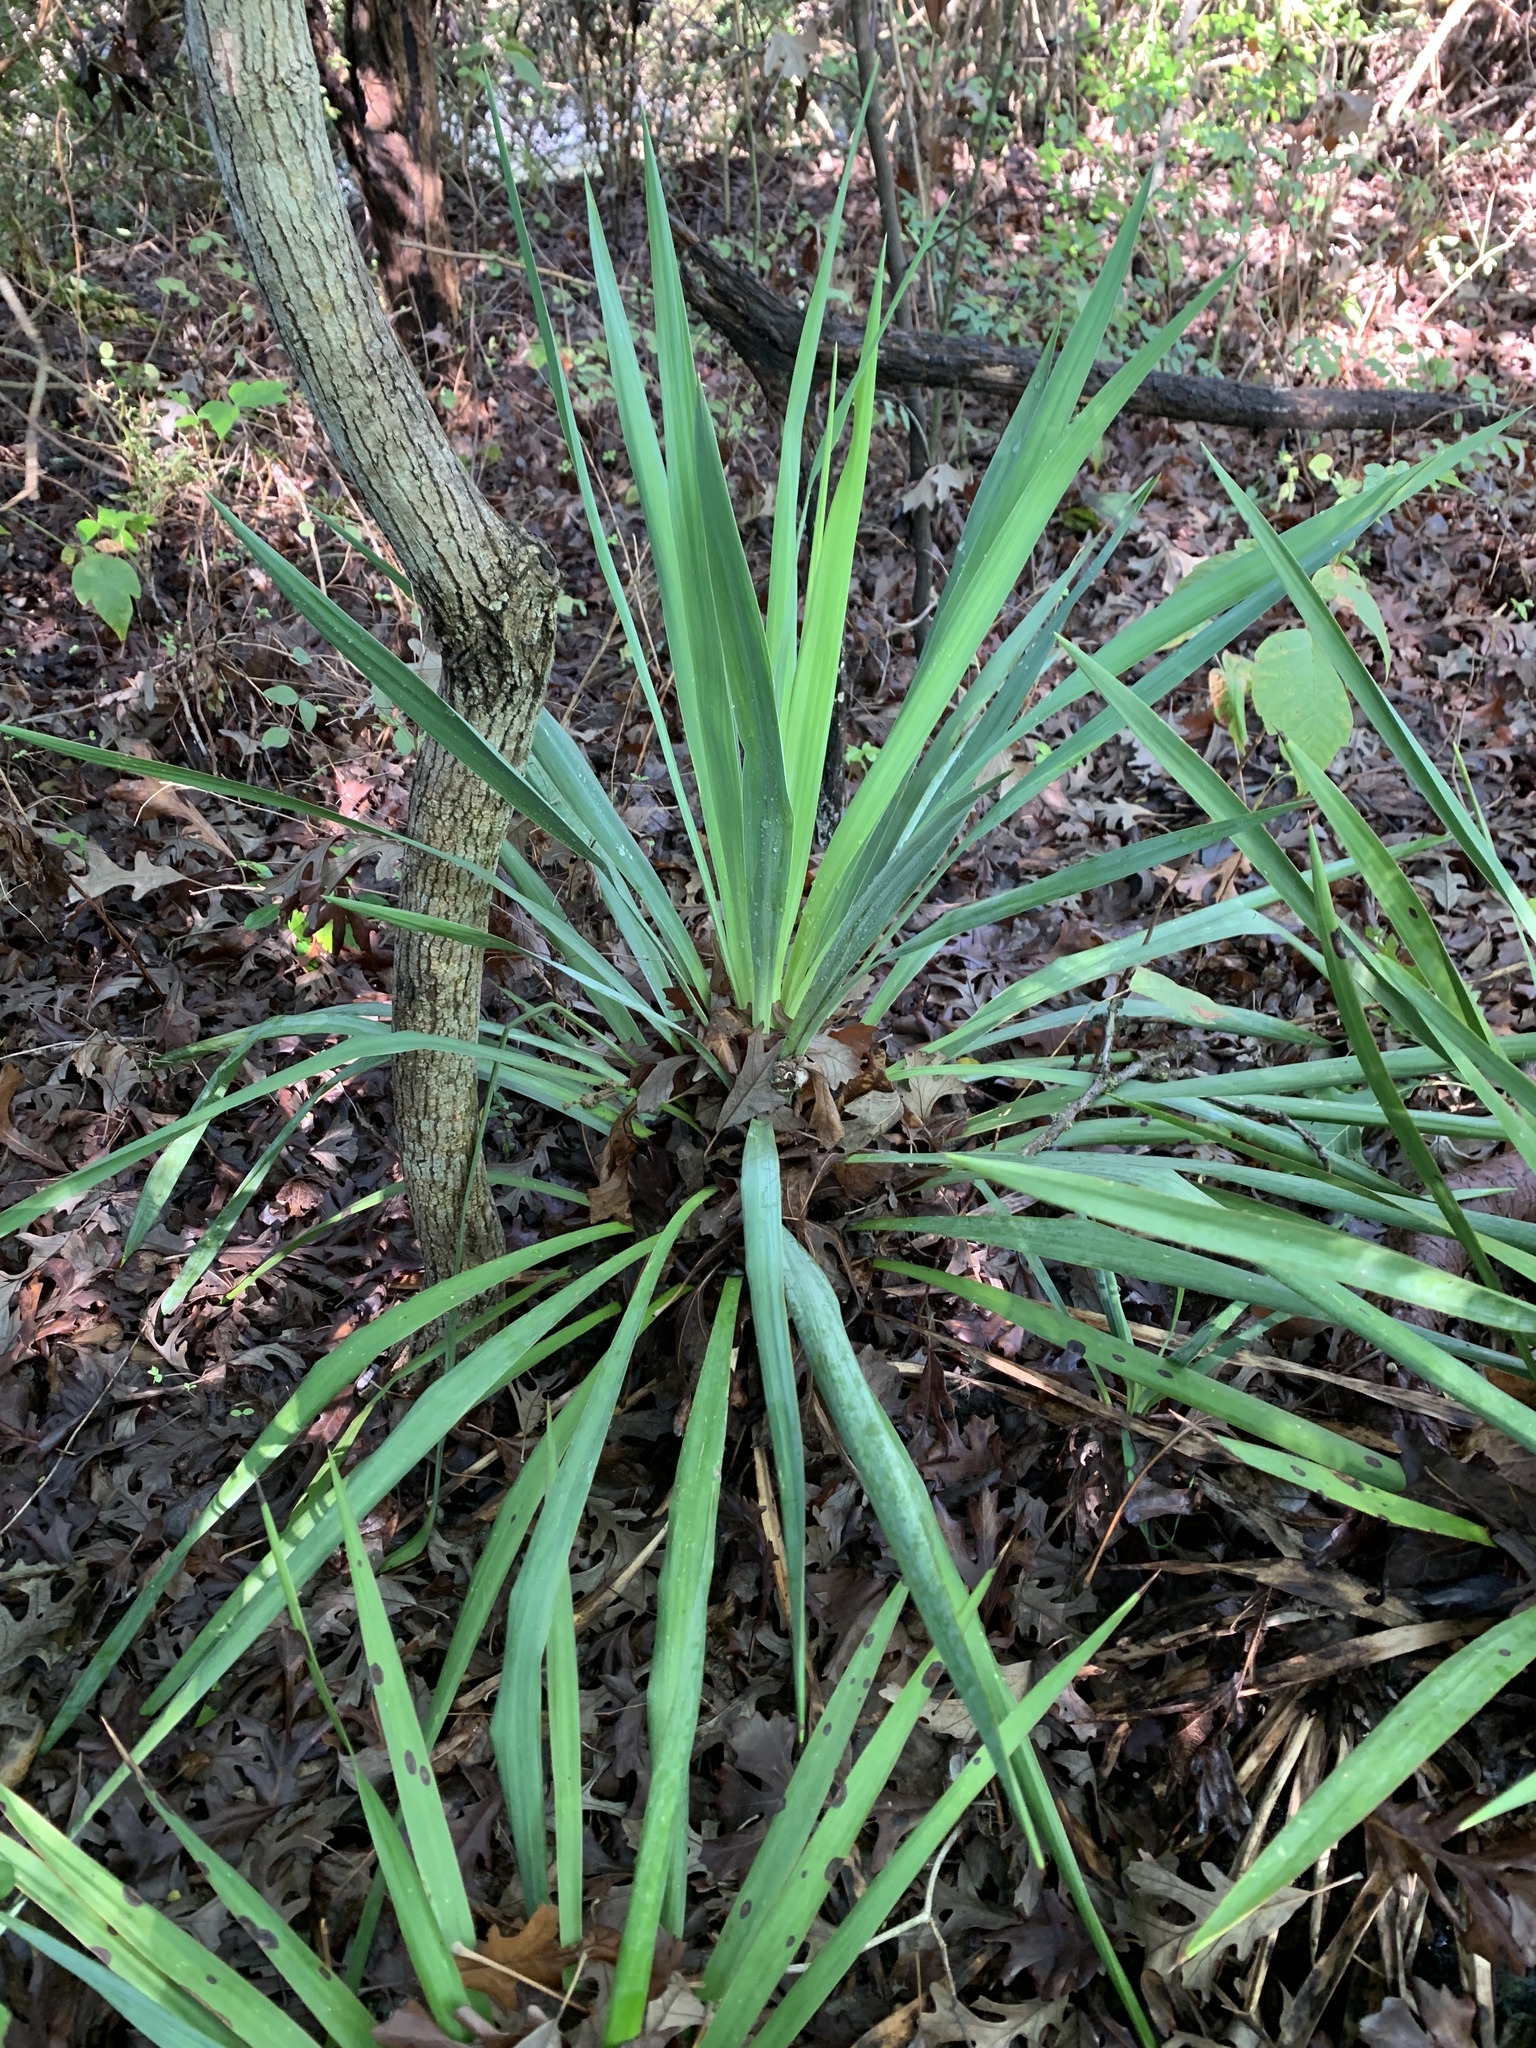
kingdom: Plantae
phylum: Tracheophyta
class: Liliopsida
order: Asparagales
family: Asparagaceae
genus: Yucca
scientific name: Yucca gloriosa
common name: Spanish-dagger
